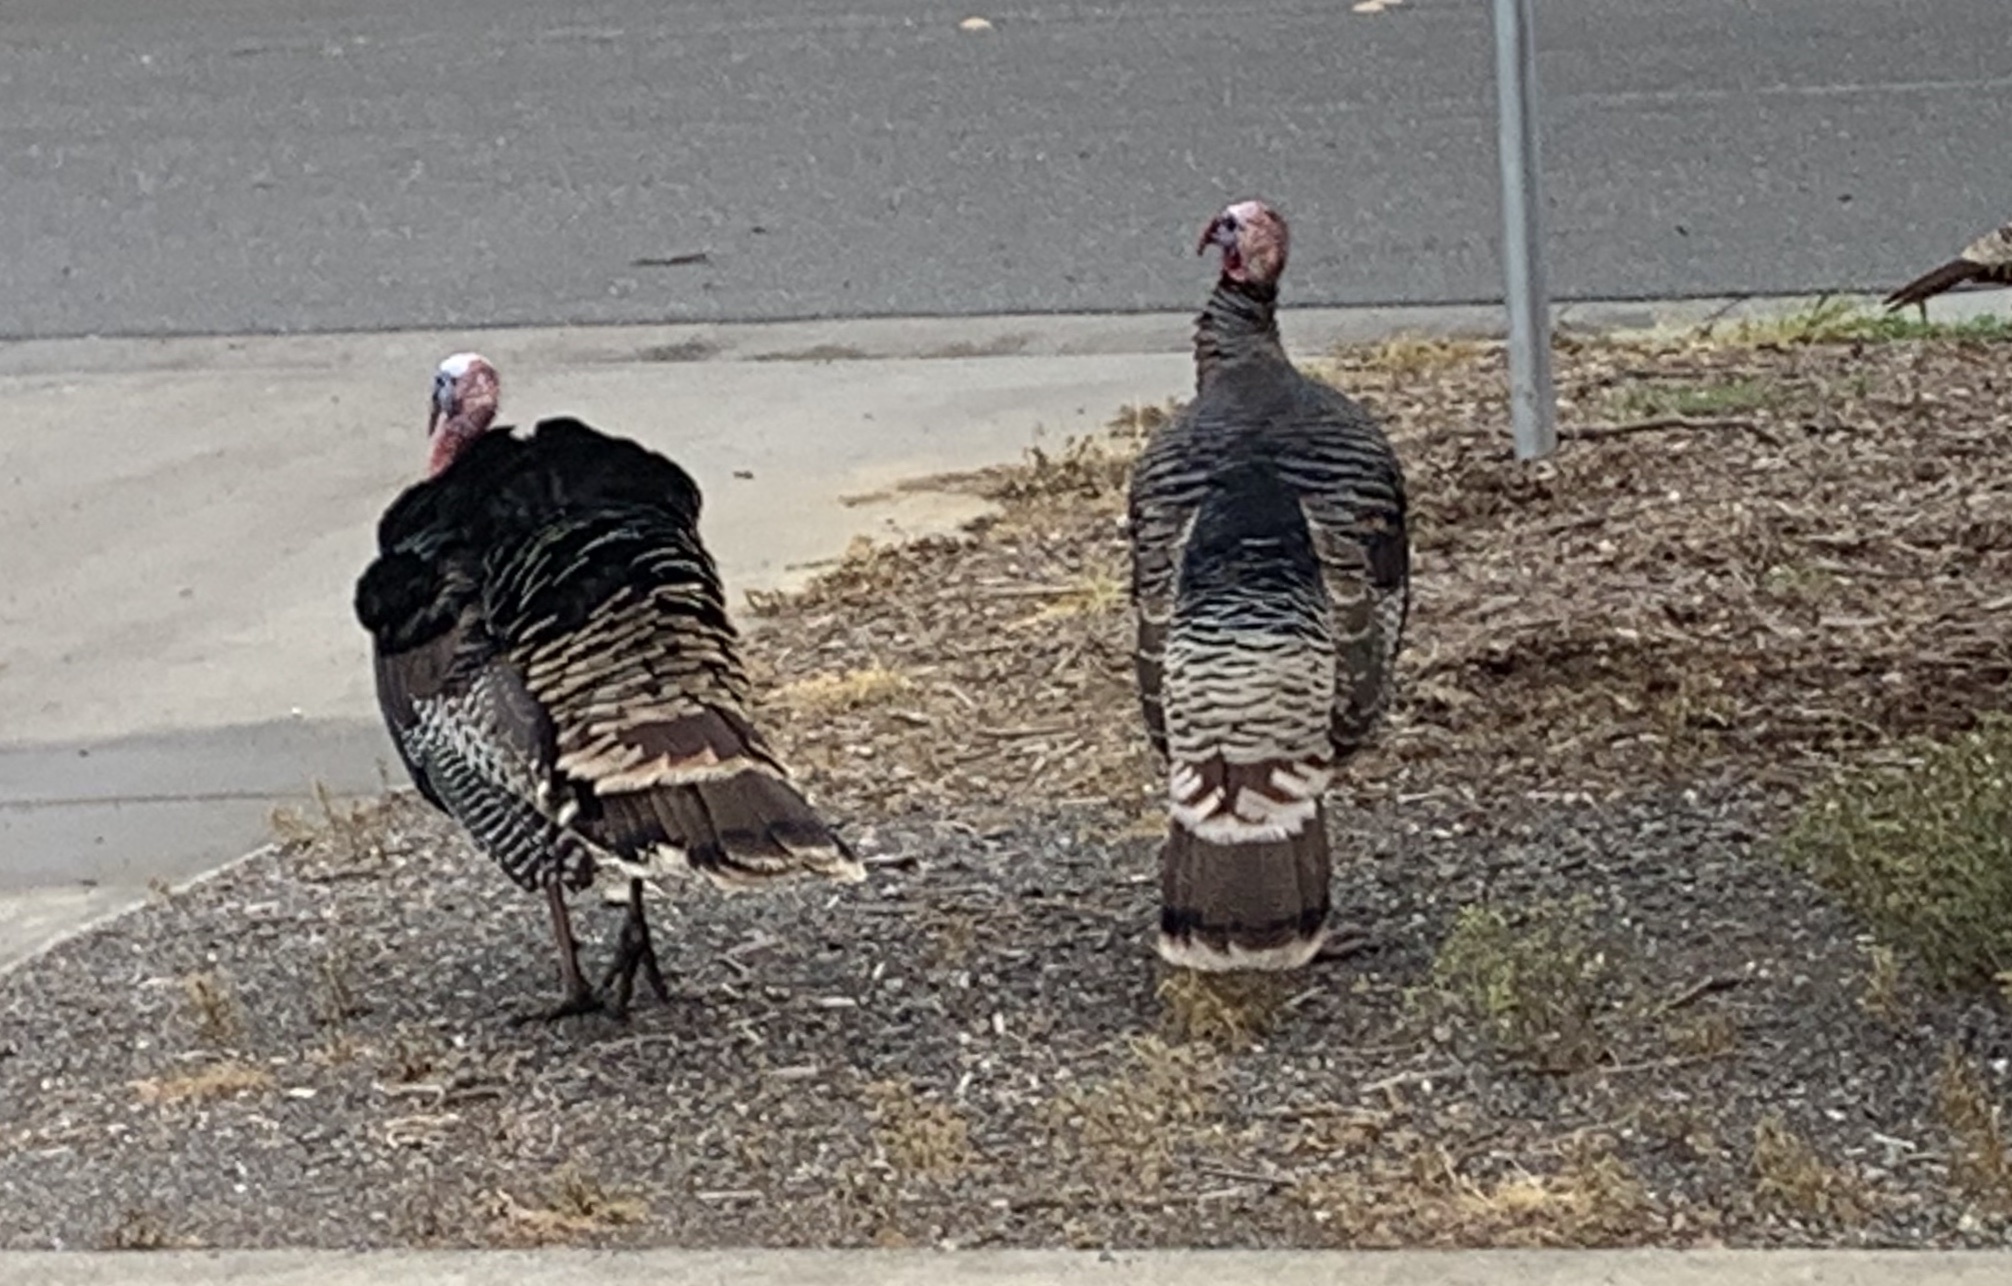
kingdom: Animalia
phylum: Chordata
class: Aves
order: Galliformes
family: Phasianidae
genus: Meleagris
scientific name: Meleagris gallopavo
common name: Wild turkey
